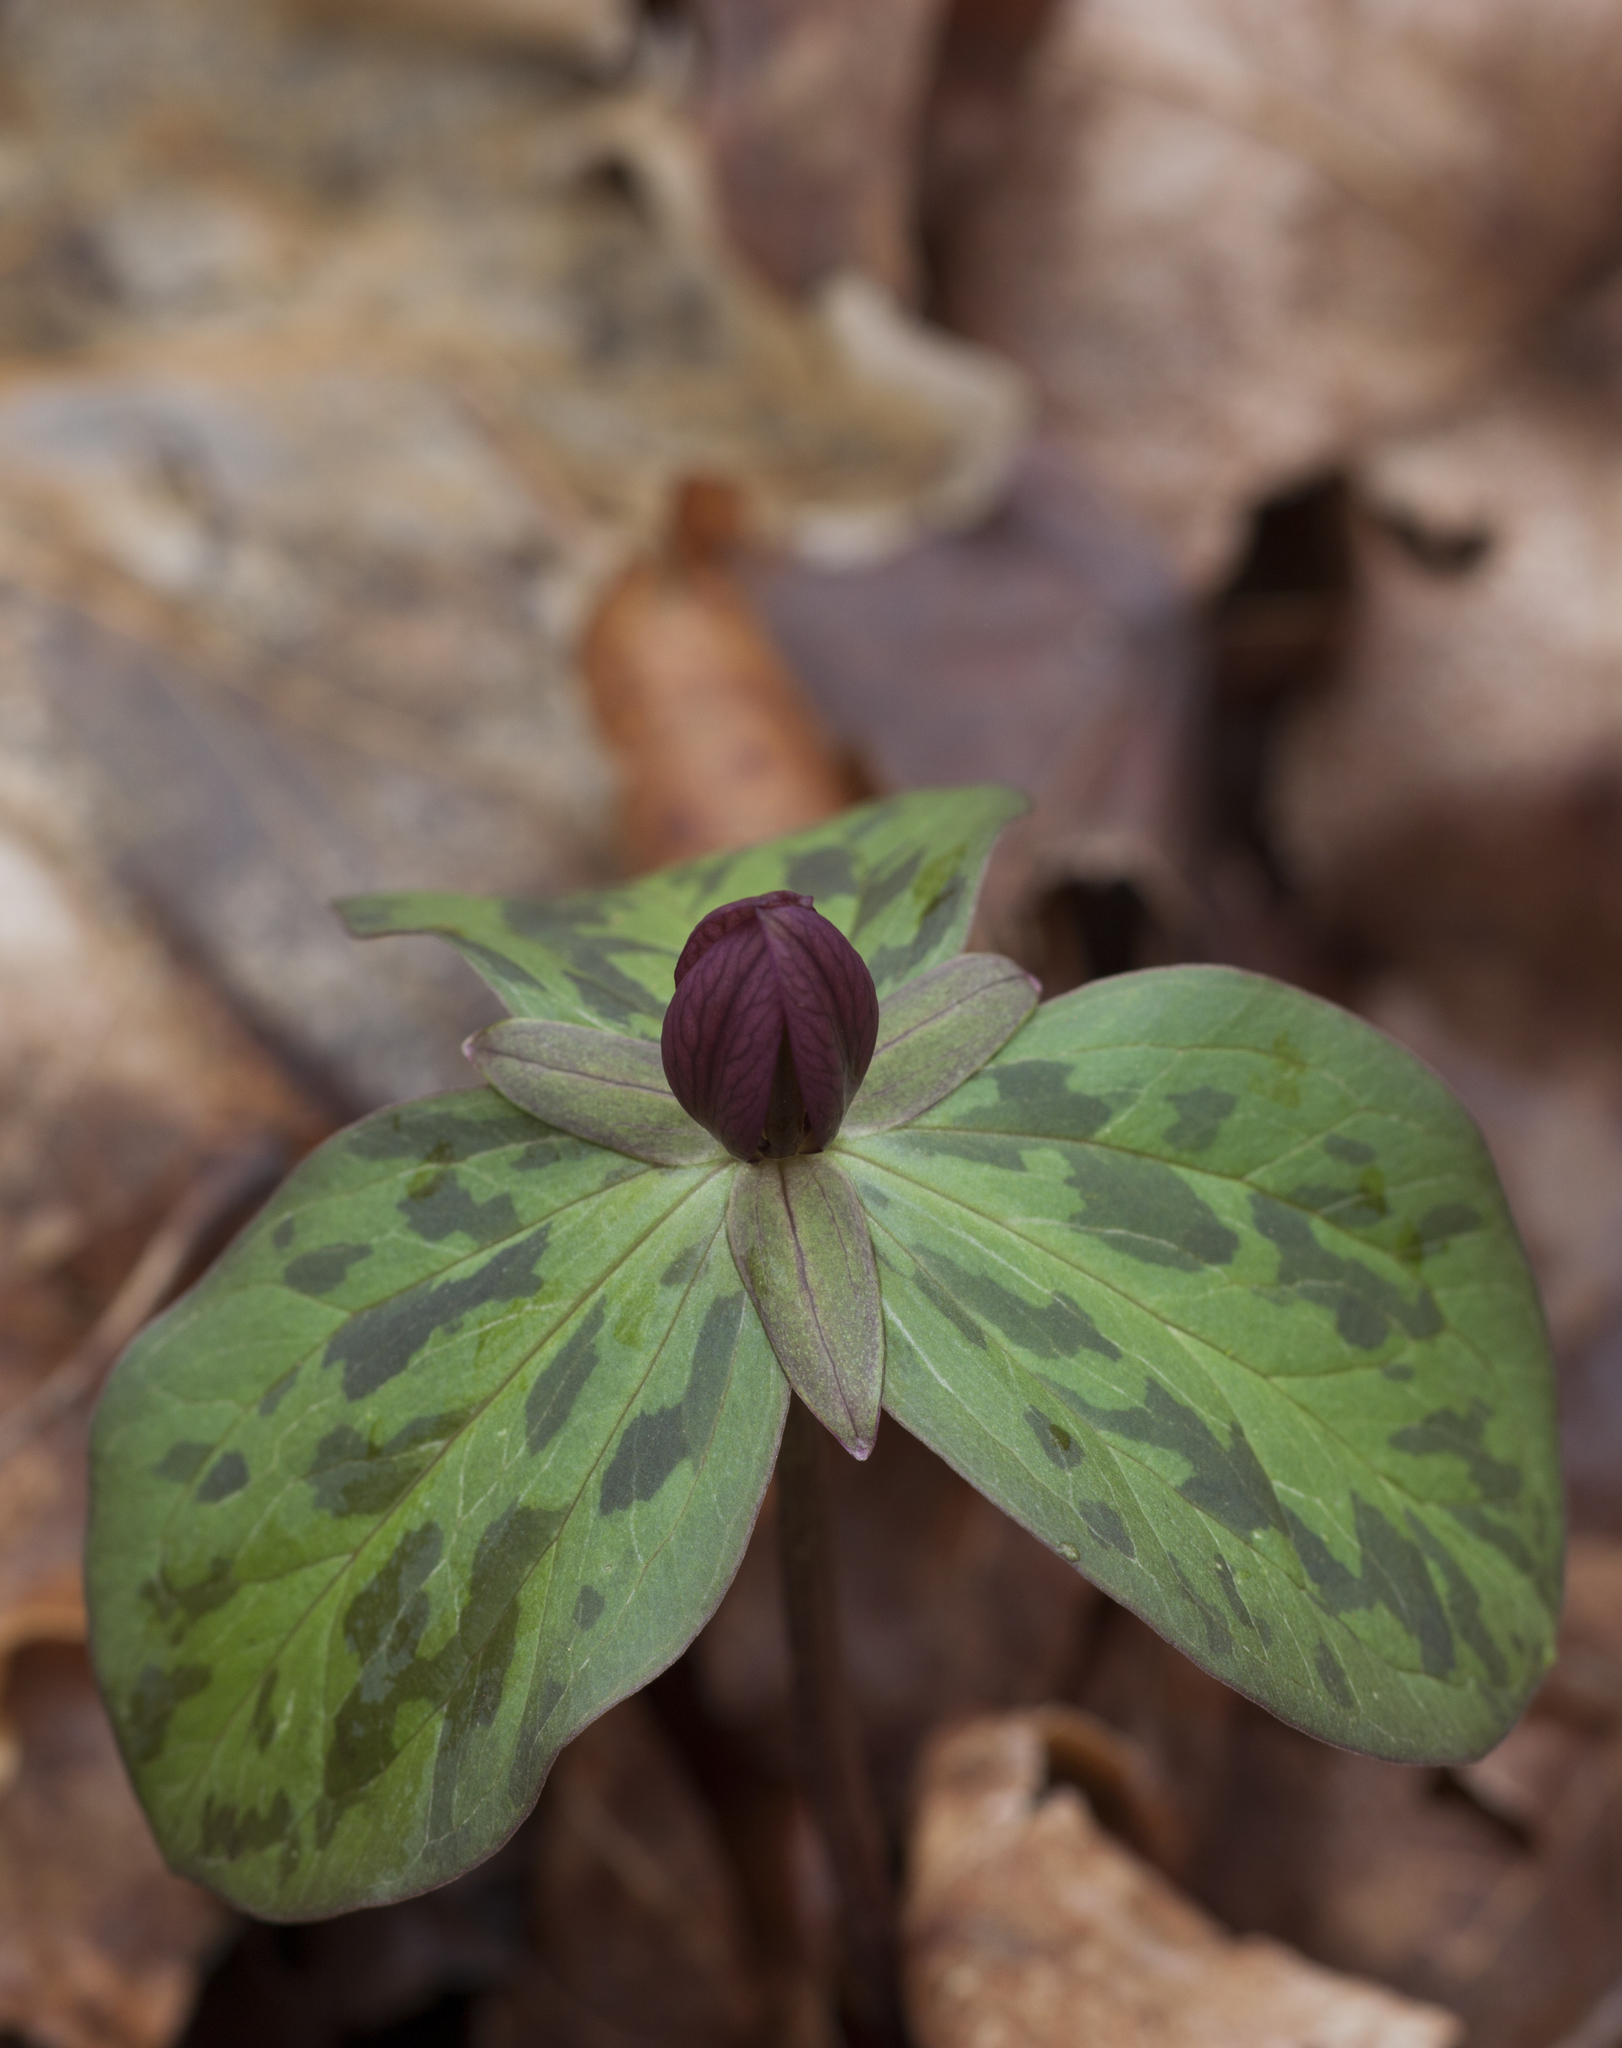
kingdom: Plantae
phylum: Tracheophyta
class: Liliopsida
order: Liliales
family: Melanthiaceae
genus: Trillium
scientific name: Trillium sessile
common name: Sessile trillium
